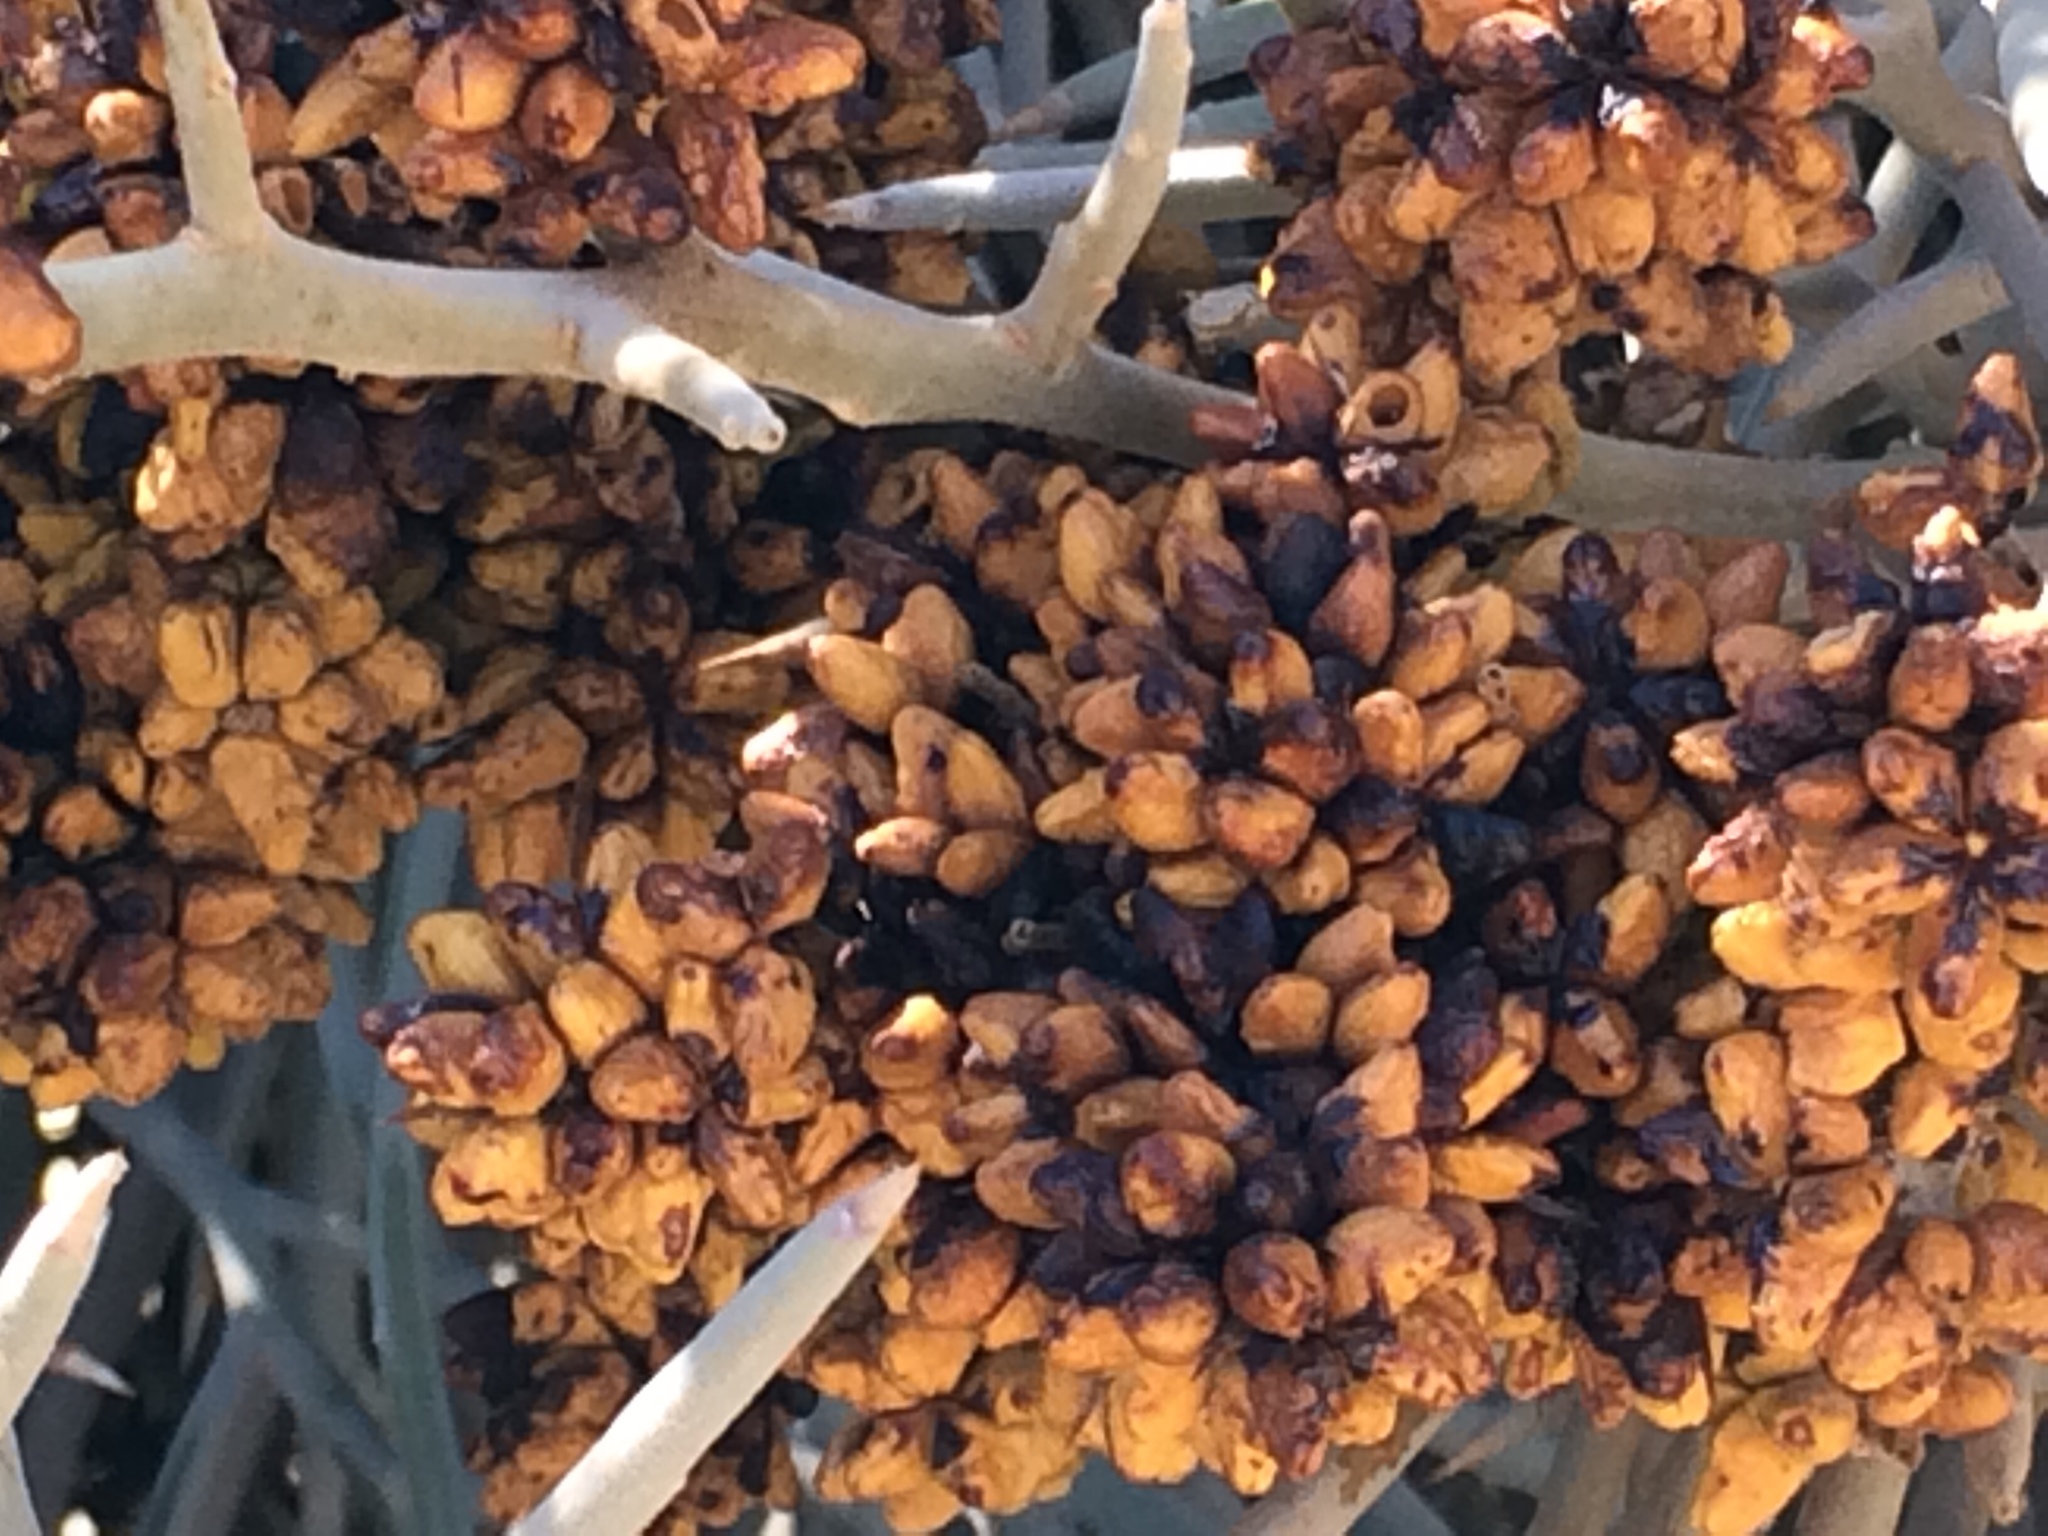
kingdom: Plantae
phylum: Tracheophyta
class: Magnoliopsida
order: Sapindales
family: Simaroubaceae
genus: Holacantha
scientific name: Holacantha emoryi
